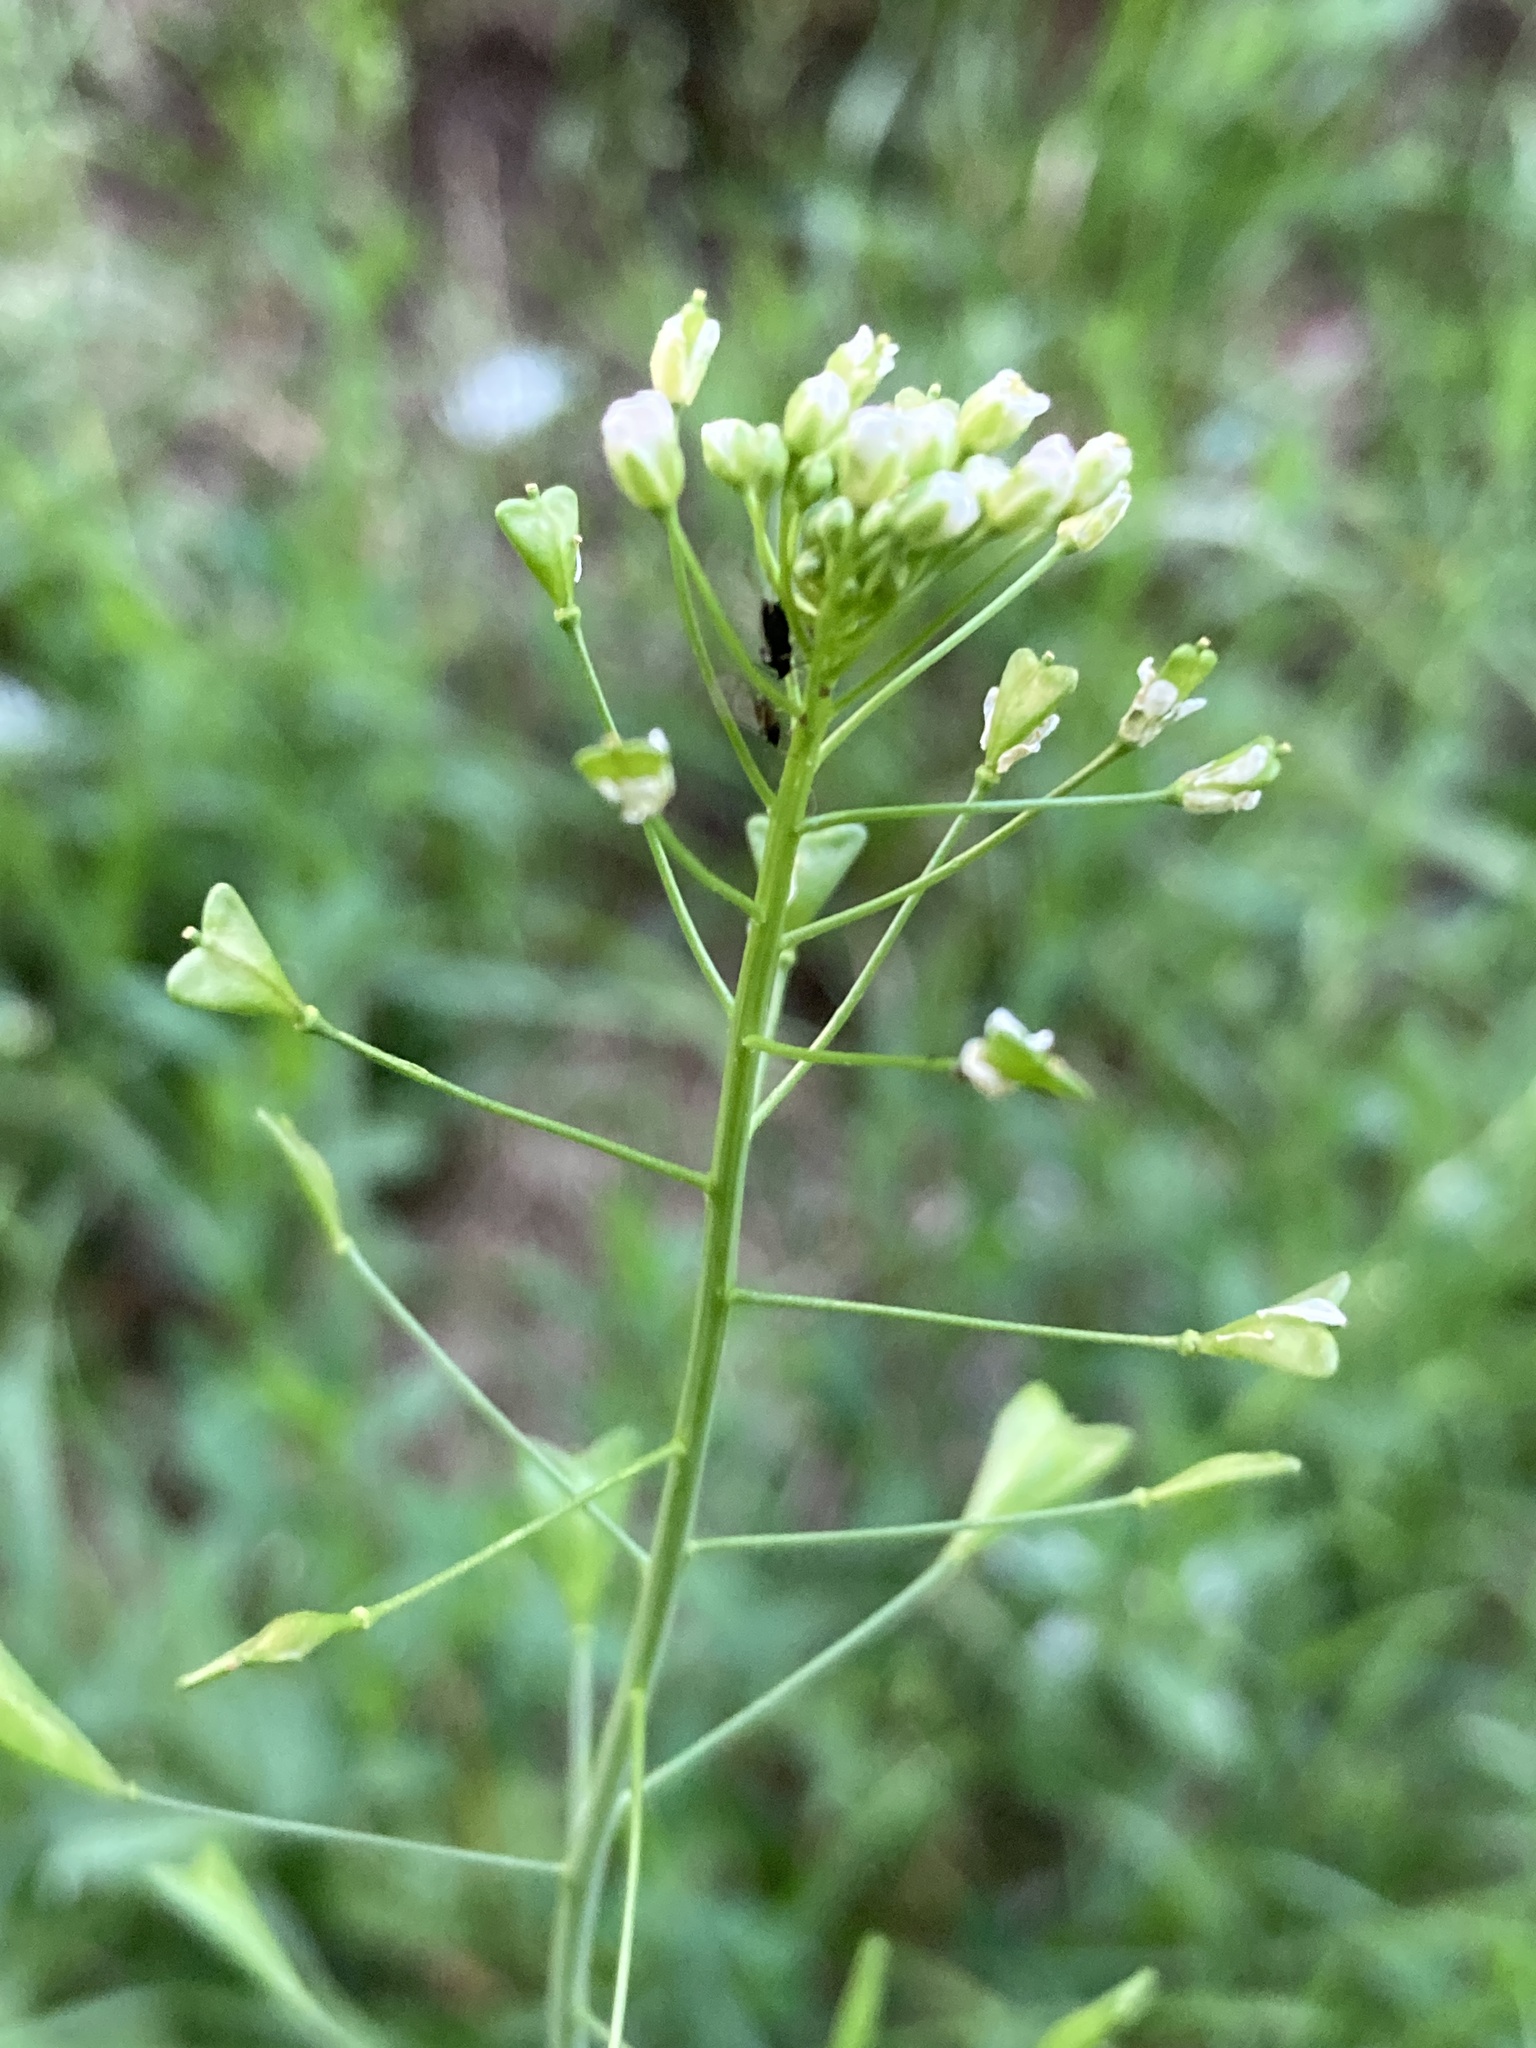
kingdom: Plantae
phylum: Tracheophyta
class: Magnoliopsida
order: Brassicales
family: Brassicaceae
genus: Capsella
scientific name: Capsella bursa-pastoris
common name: Shepherd's purse
